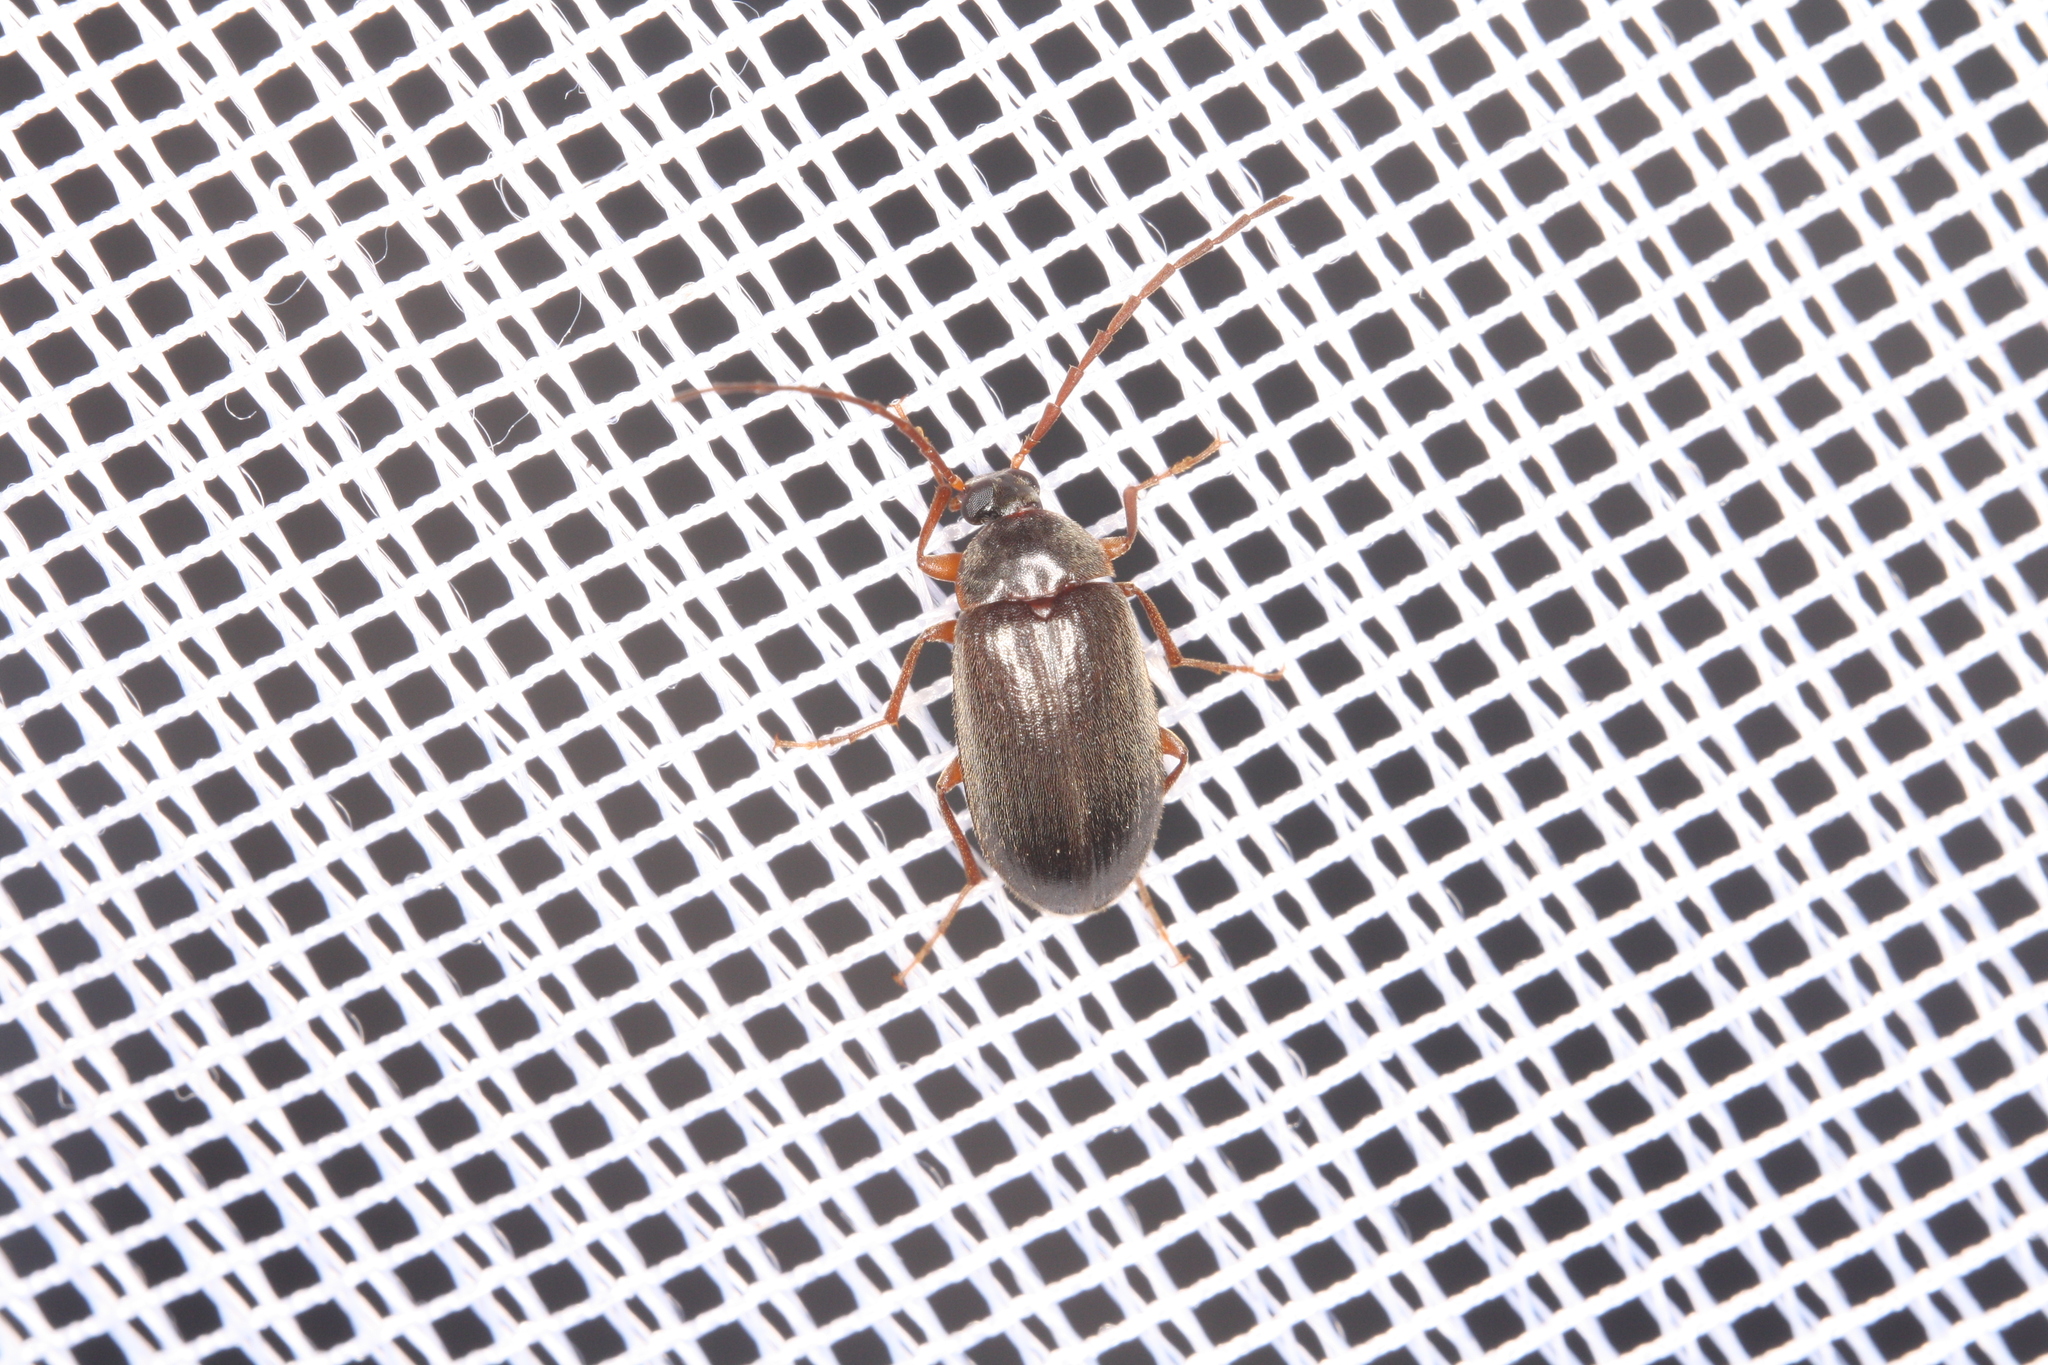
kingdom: Animalia
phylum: Arthropoda
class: Insecta
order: Coleoptera
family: Carabidae
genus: Harpalus
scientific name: Harpalus rufipes
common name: Strawberry harp ground beetle
